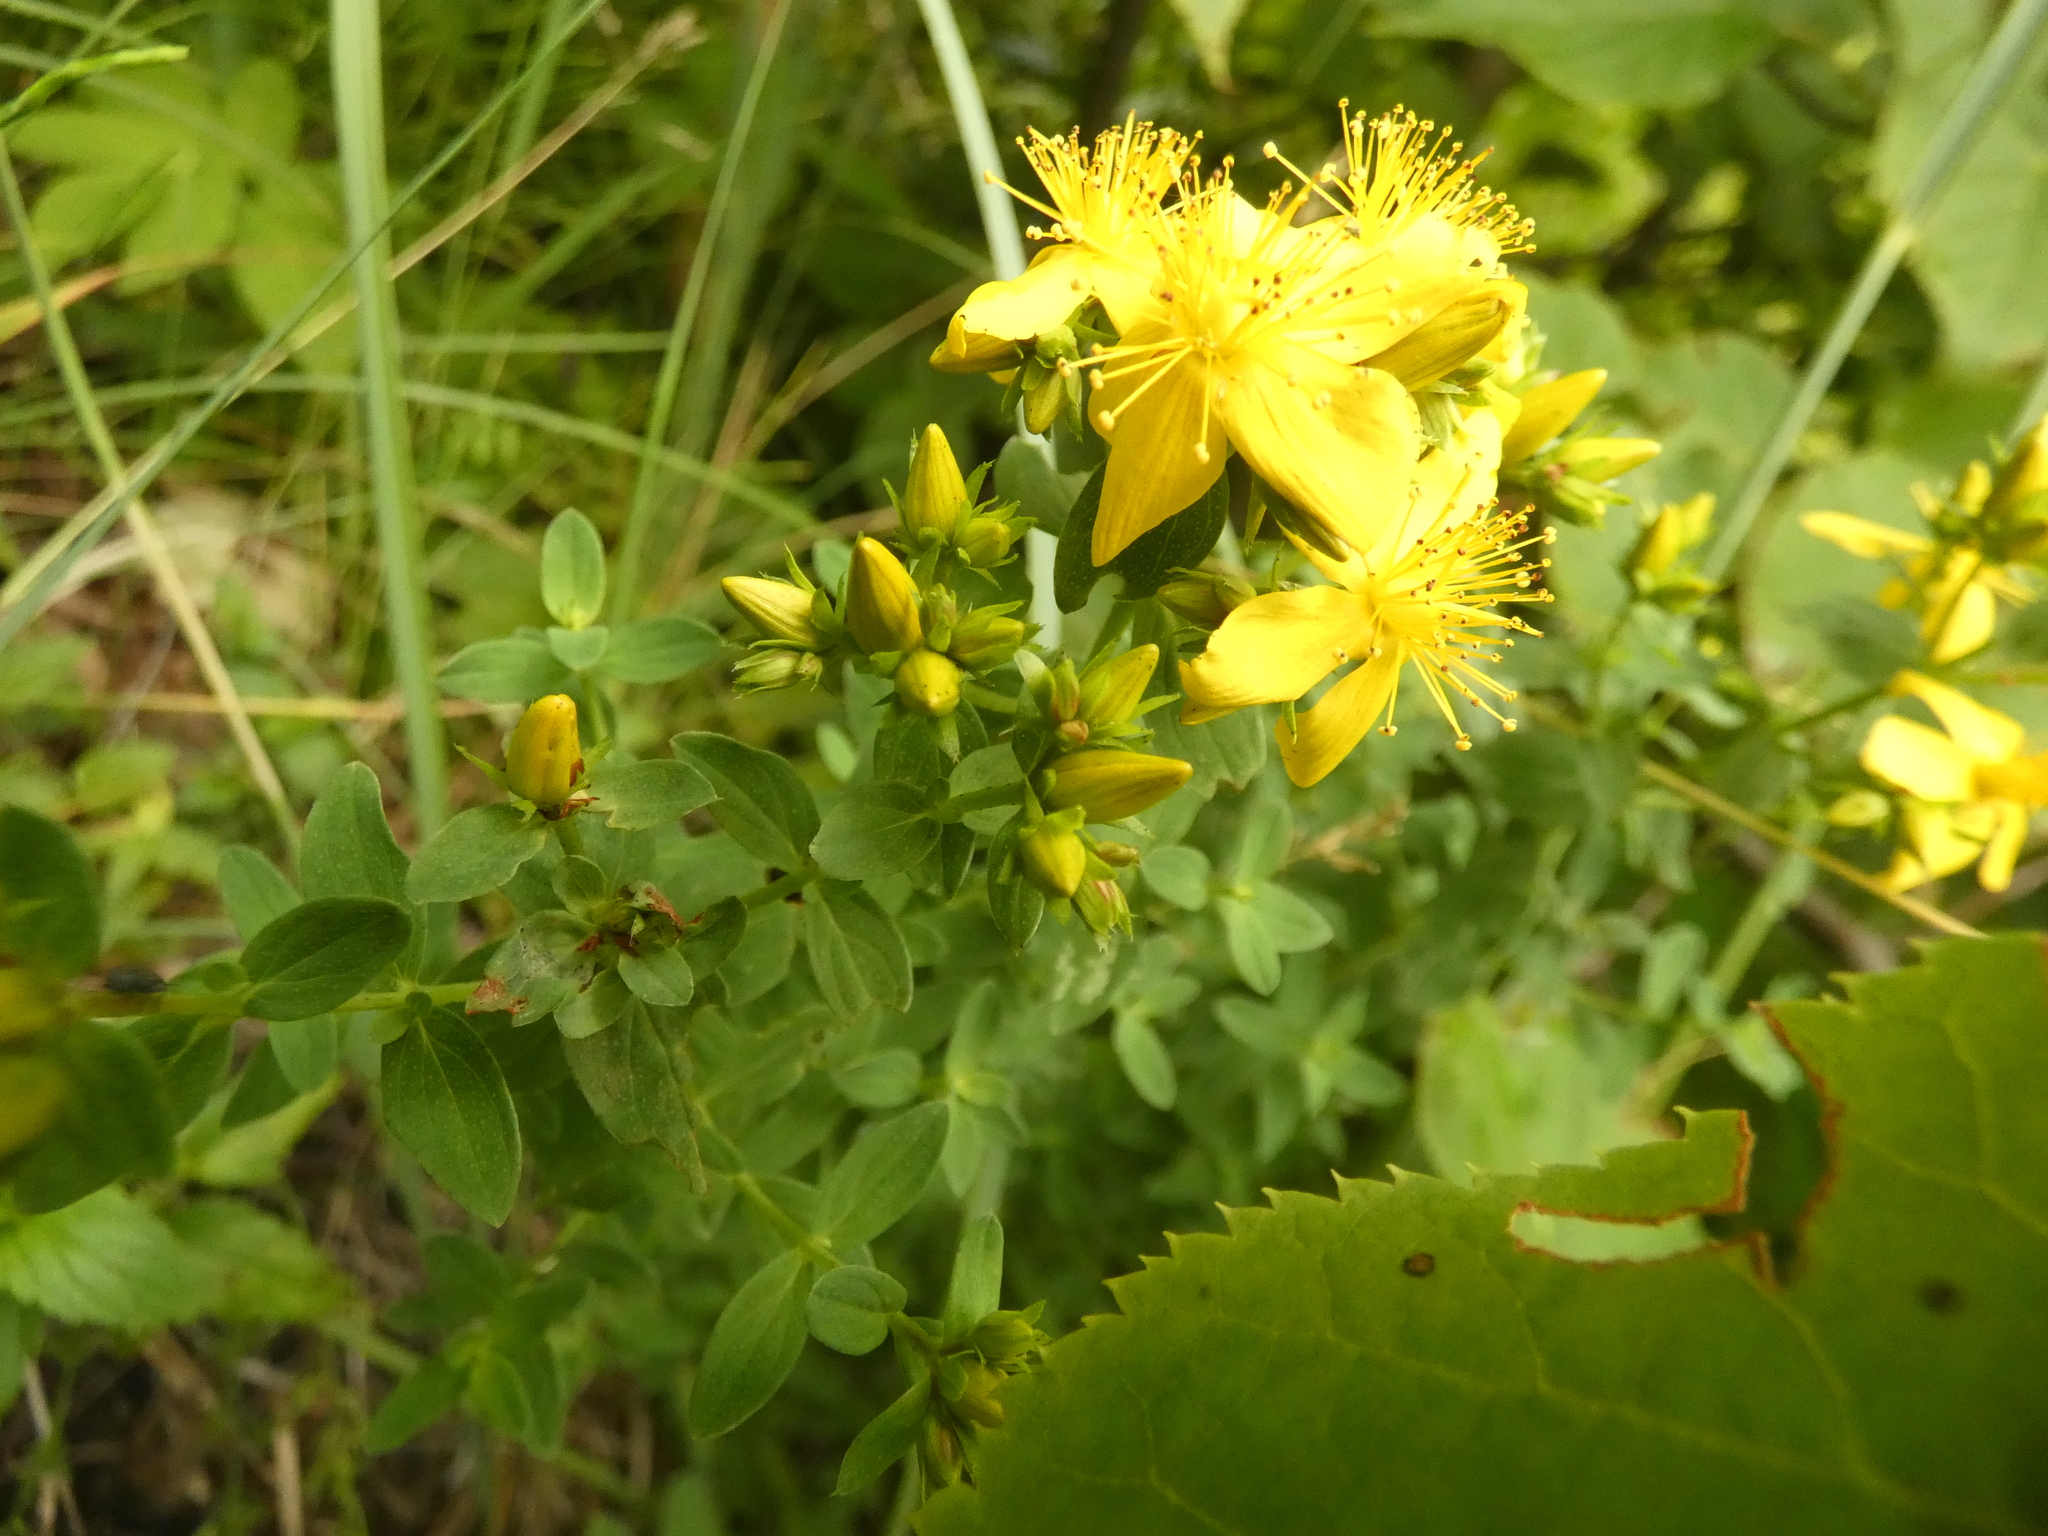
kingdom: Plantae
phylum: Tracheophyta
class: Magnoliopsida
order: Malpighiales
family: Hypericaceae
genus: Hypericum
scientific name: Hypericum perforatum
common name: Common st. johnswort
